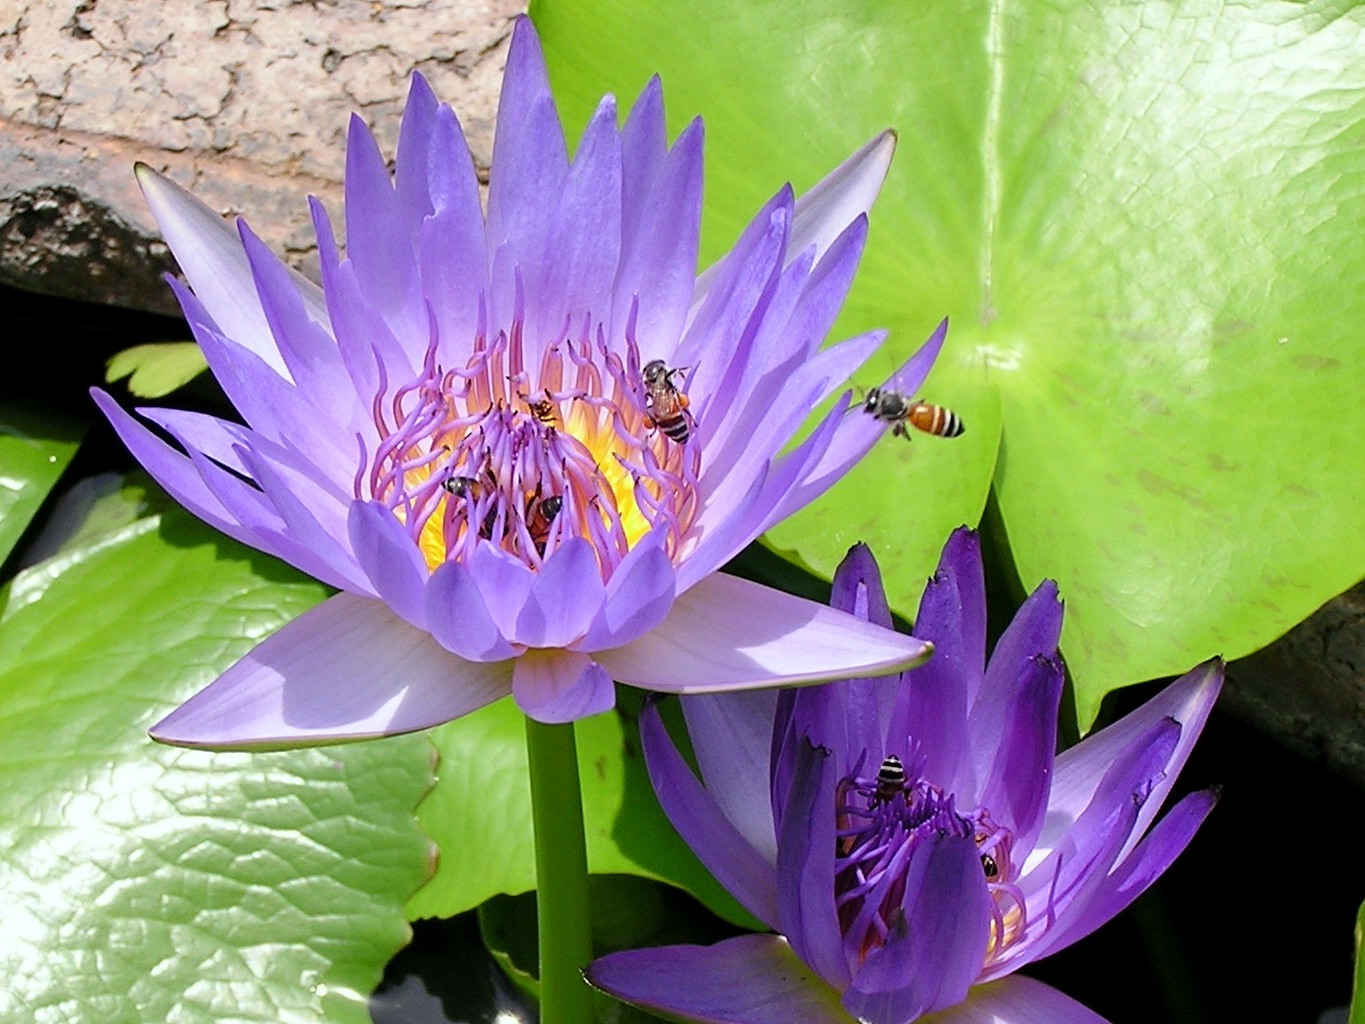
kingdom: Animalia
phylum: Arthropoda
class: Insecta
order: Hymenoptera
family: Apidae
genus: Apis
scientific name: Apis florea
